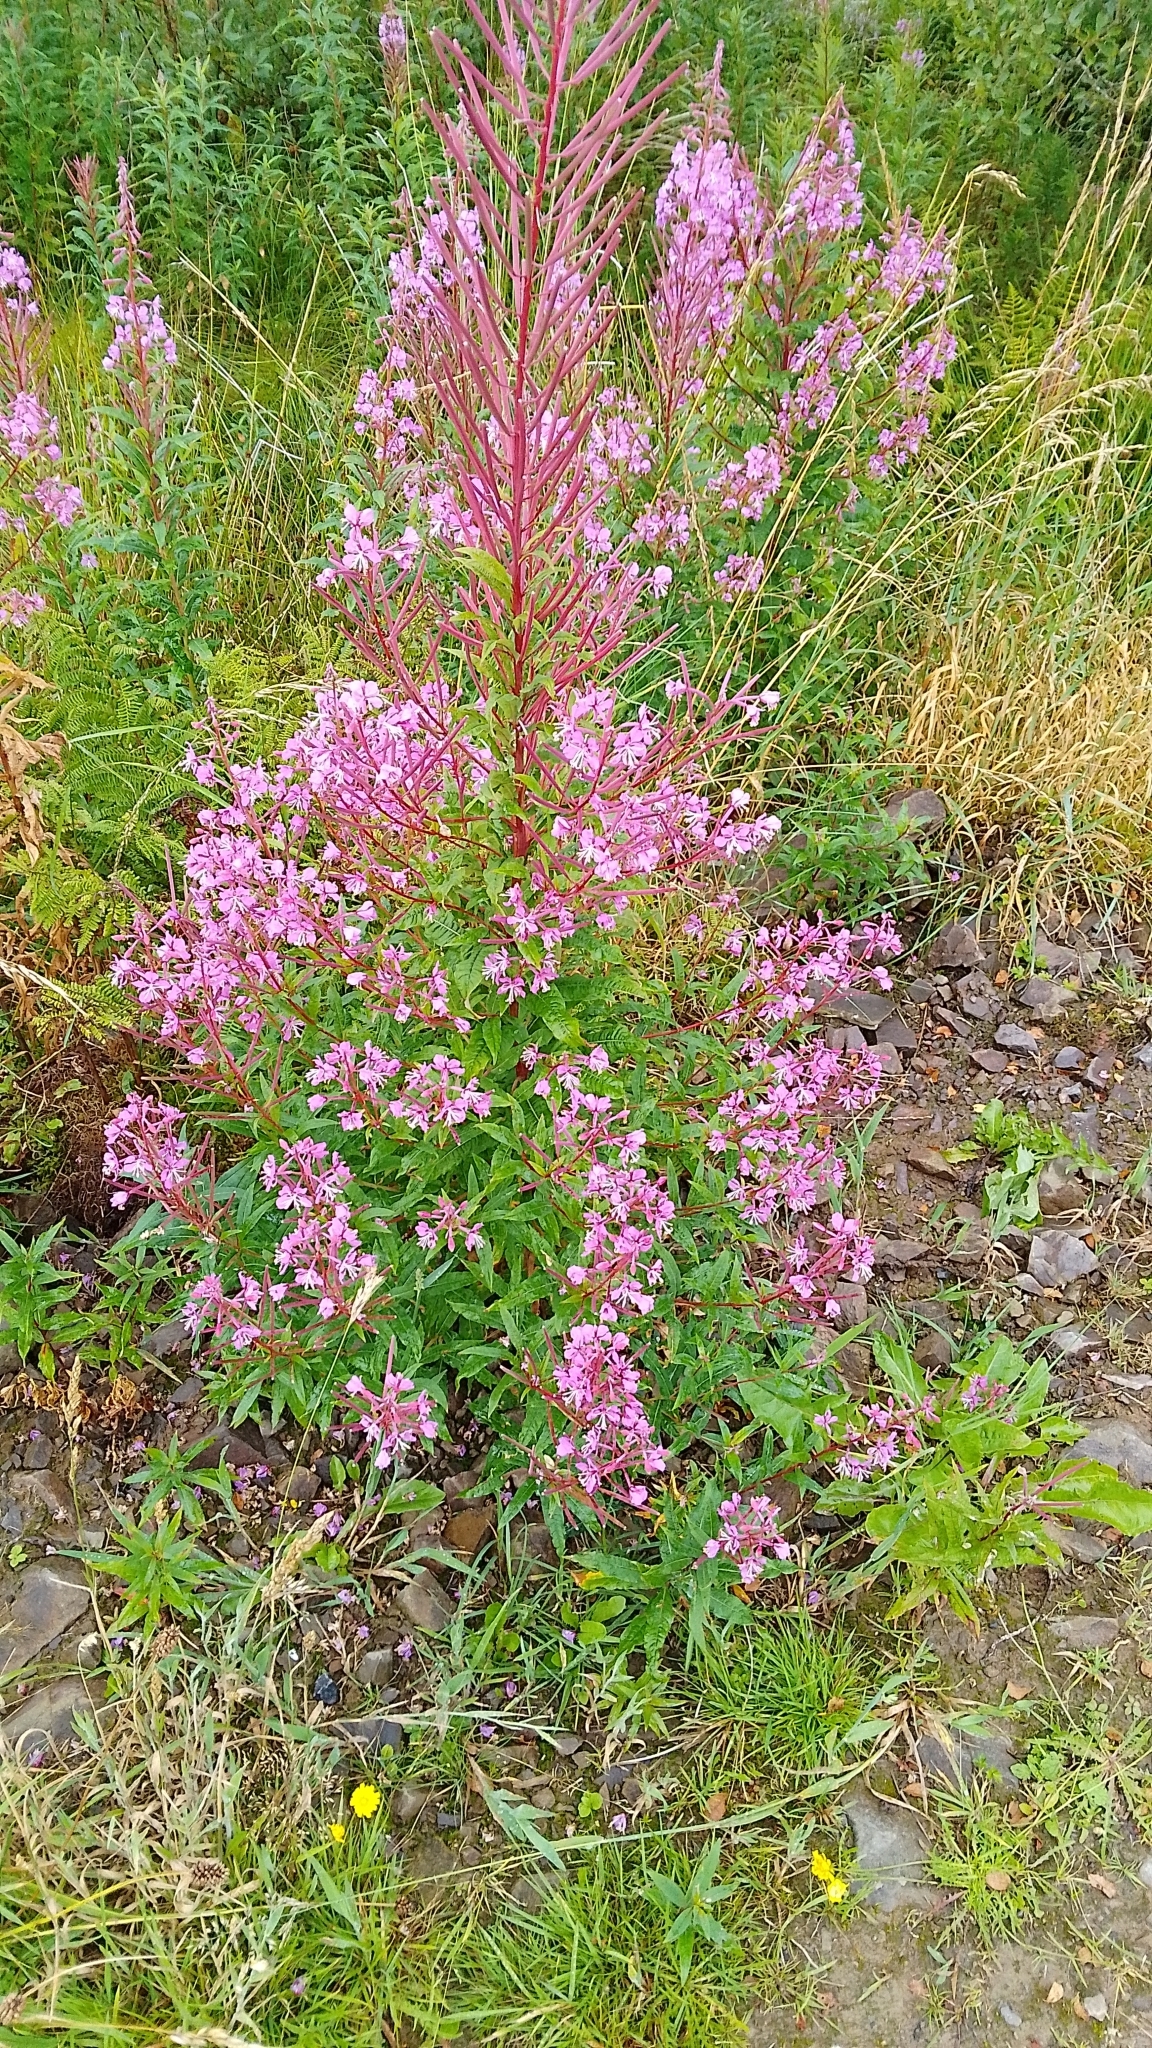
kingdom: Plantae
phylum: Tracheophyta
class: Magnoliopsida
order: Myrtales
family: Onagraceae
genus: Chamaenerion
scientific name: Chamaenerion angustifolium
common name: Fireweed
